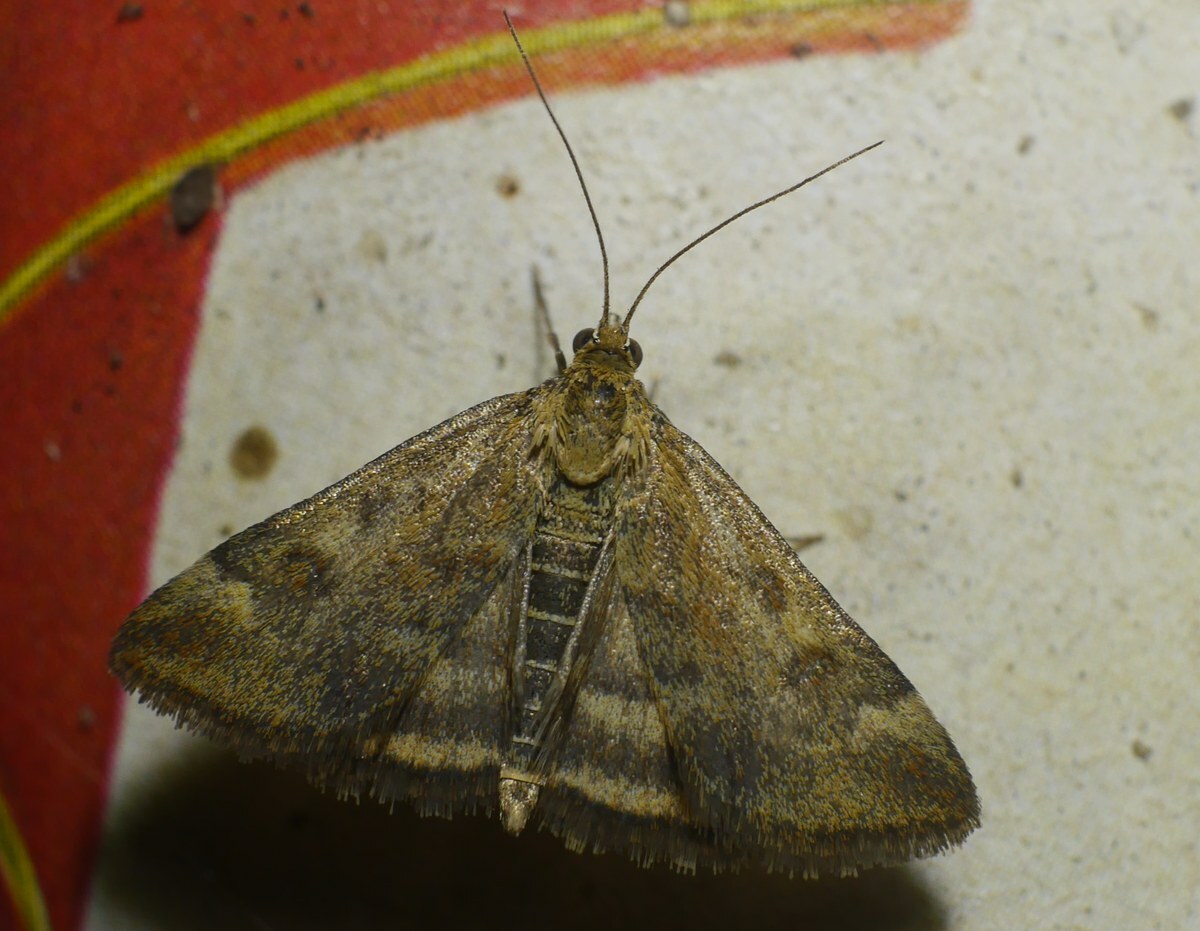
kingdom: Animalia
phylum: Arthropoda
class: Insecta
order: Lepidoptera
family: Crambidae
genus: Pyrausta
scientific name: Pyrausta despicata
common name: Straw-barred pearl
